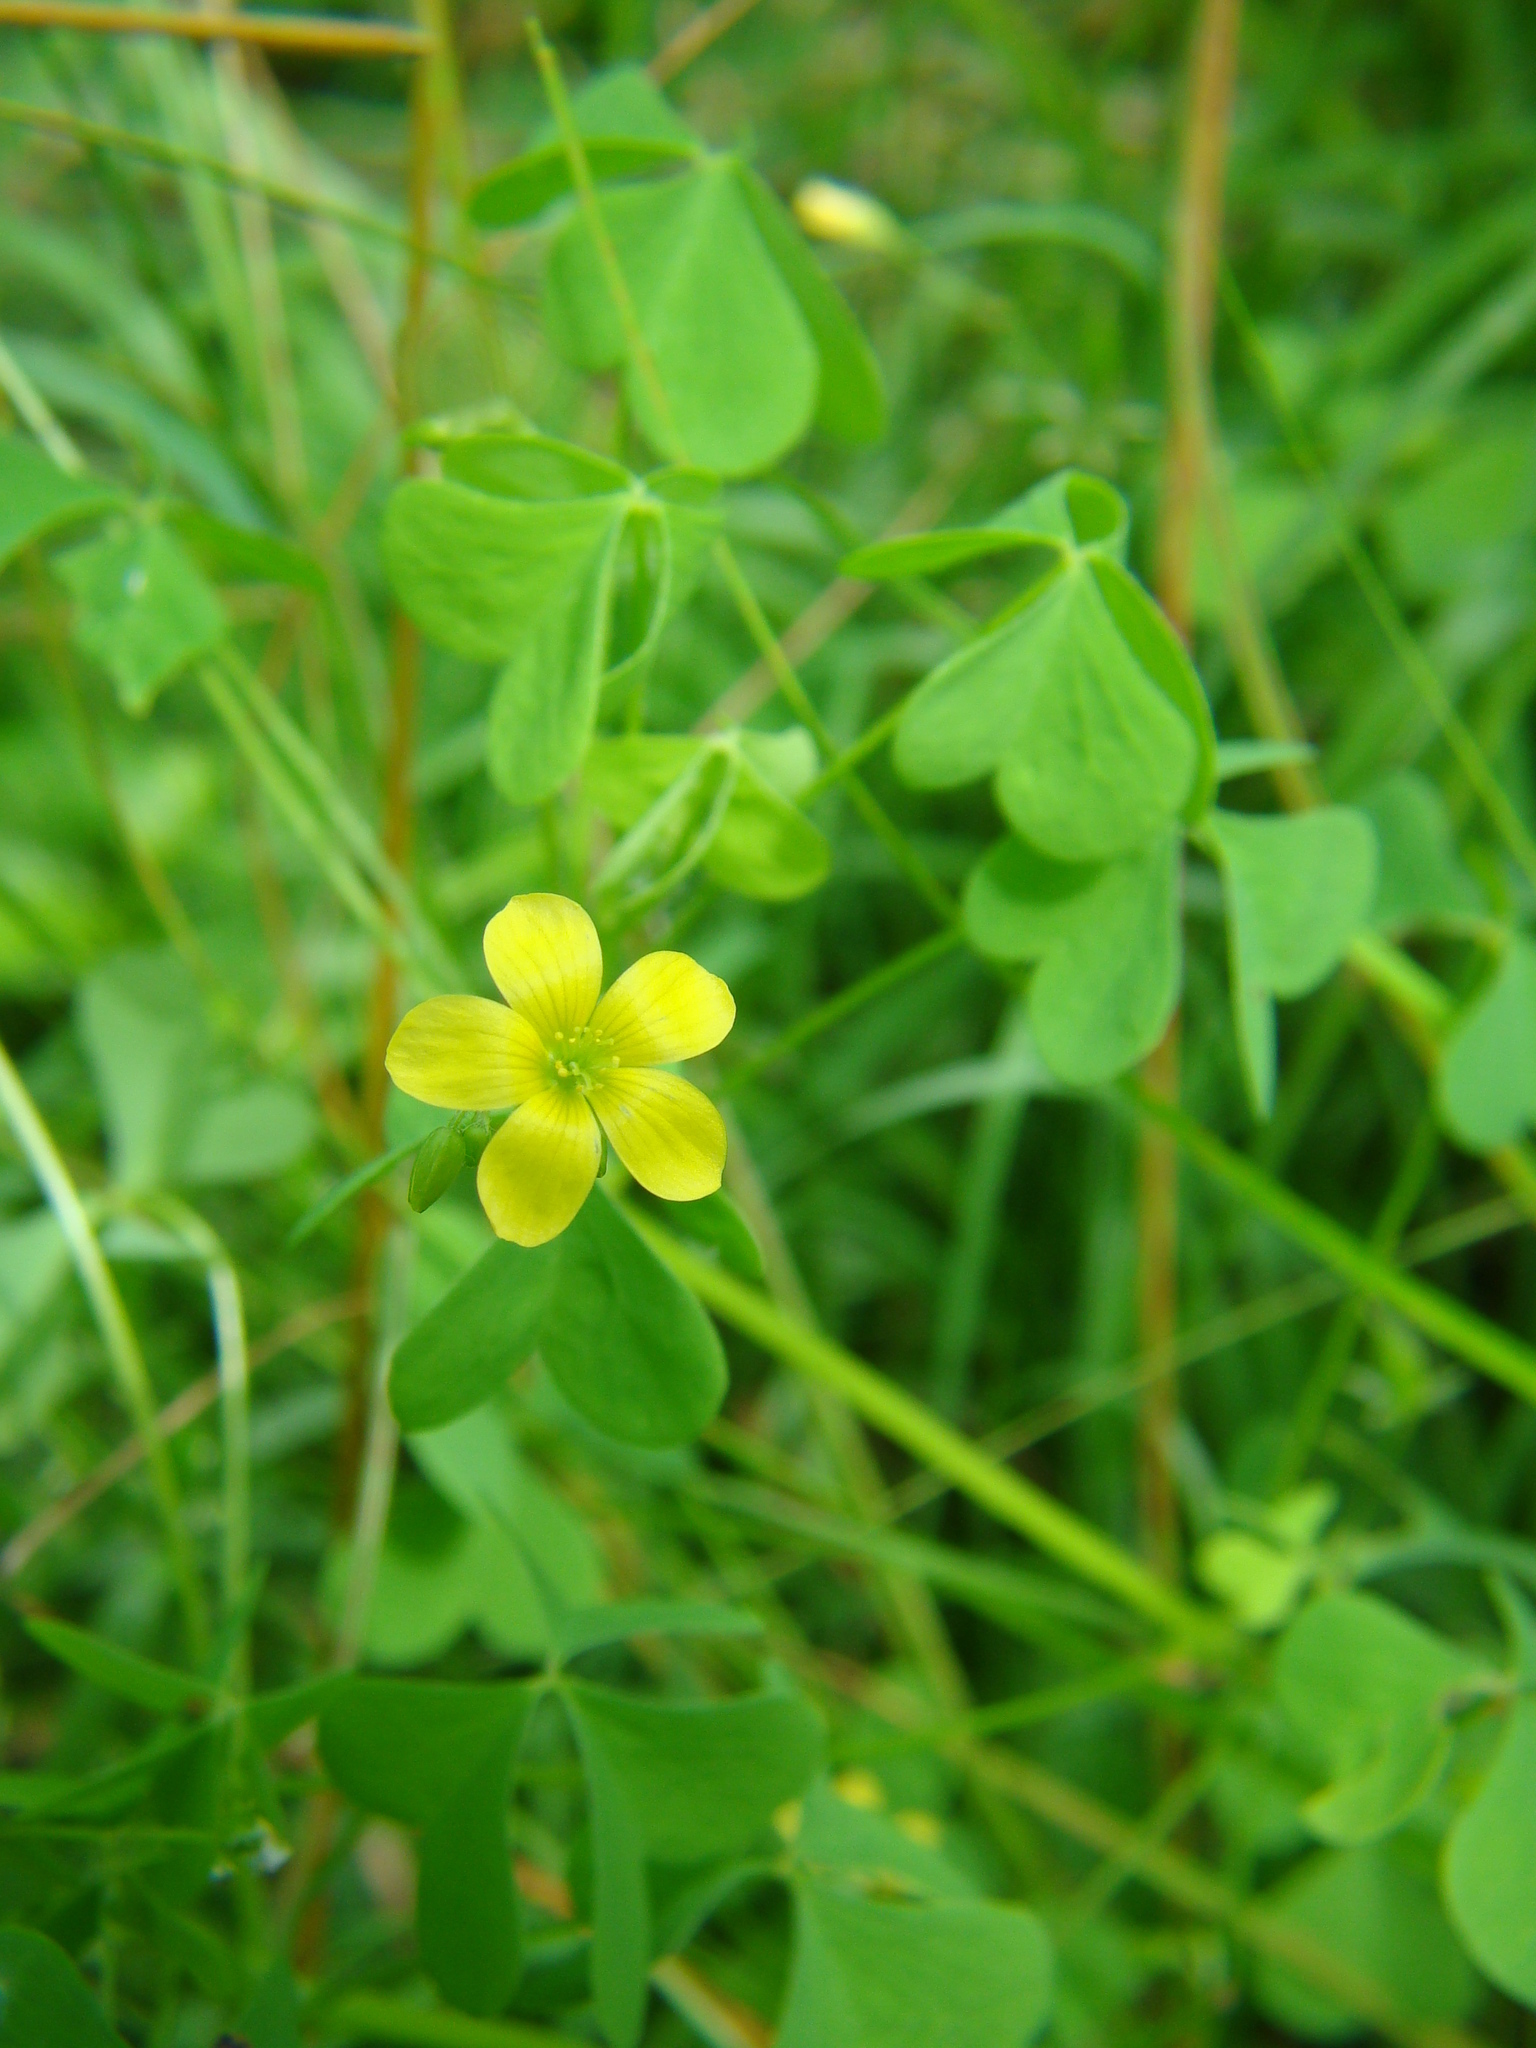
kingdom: Plantae
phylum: Tracheophyta
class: Magnoliopsida
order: Oxalidales
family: Oxalidaceae
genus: Oxalis
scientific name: Oxalis stricta
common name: Upright yellow-sorrel
